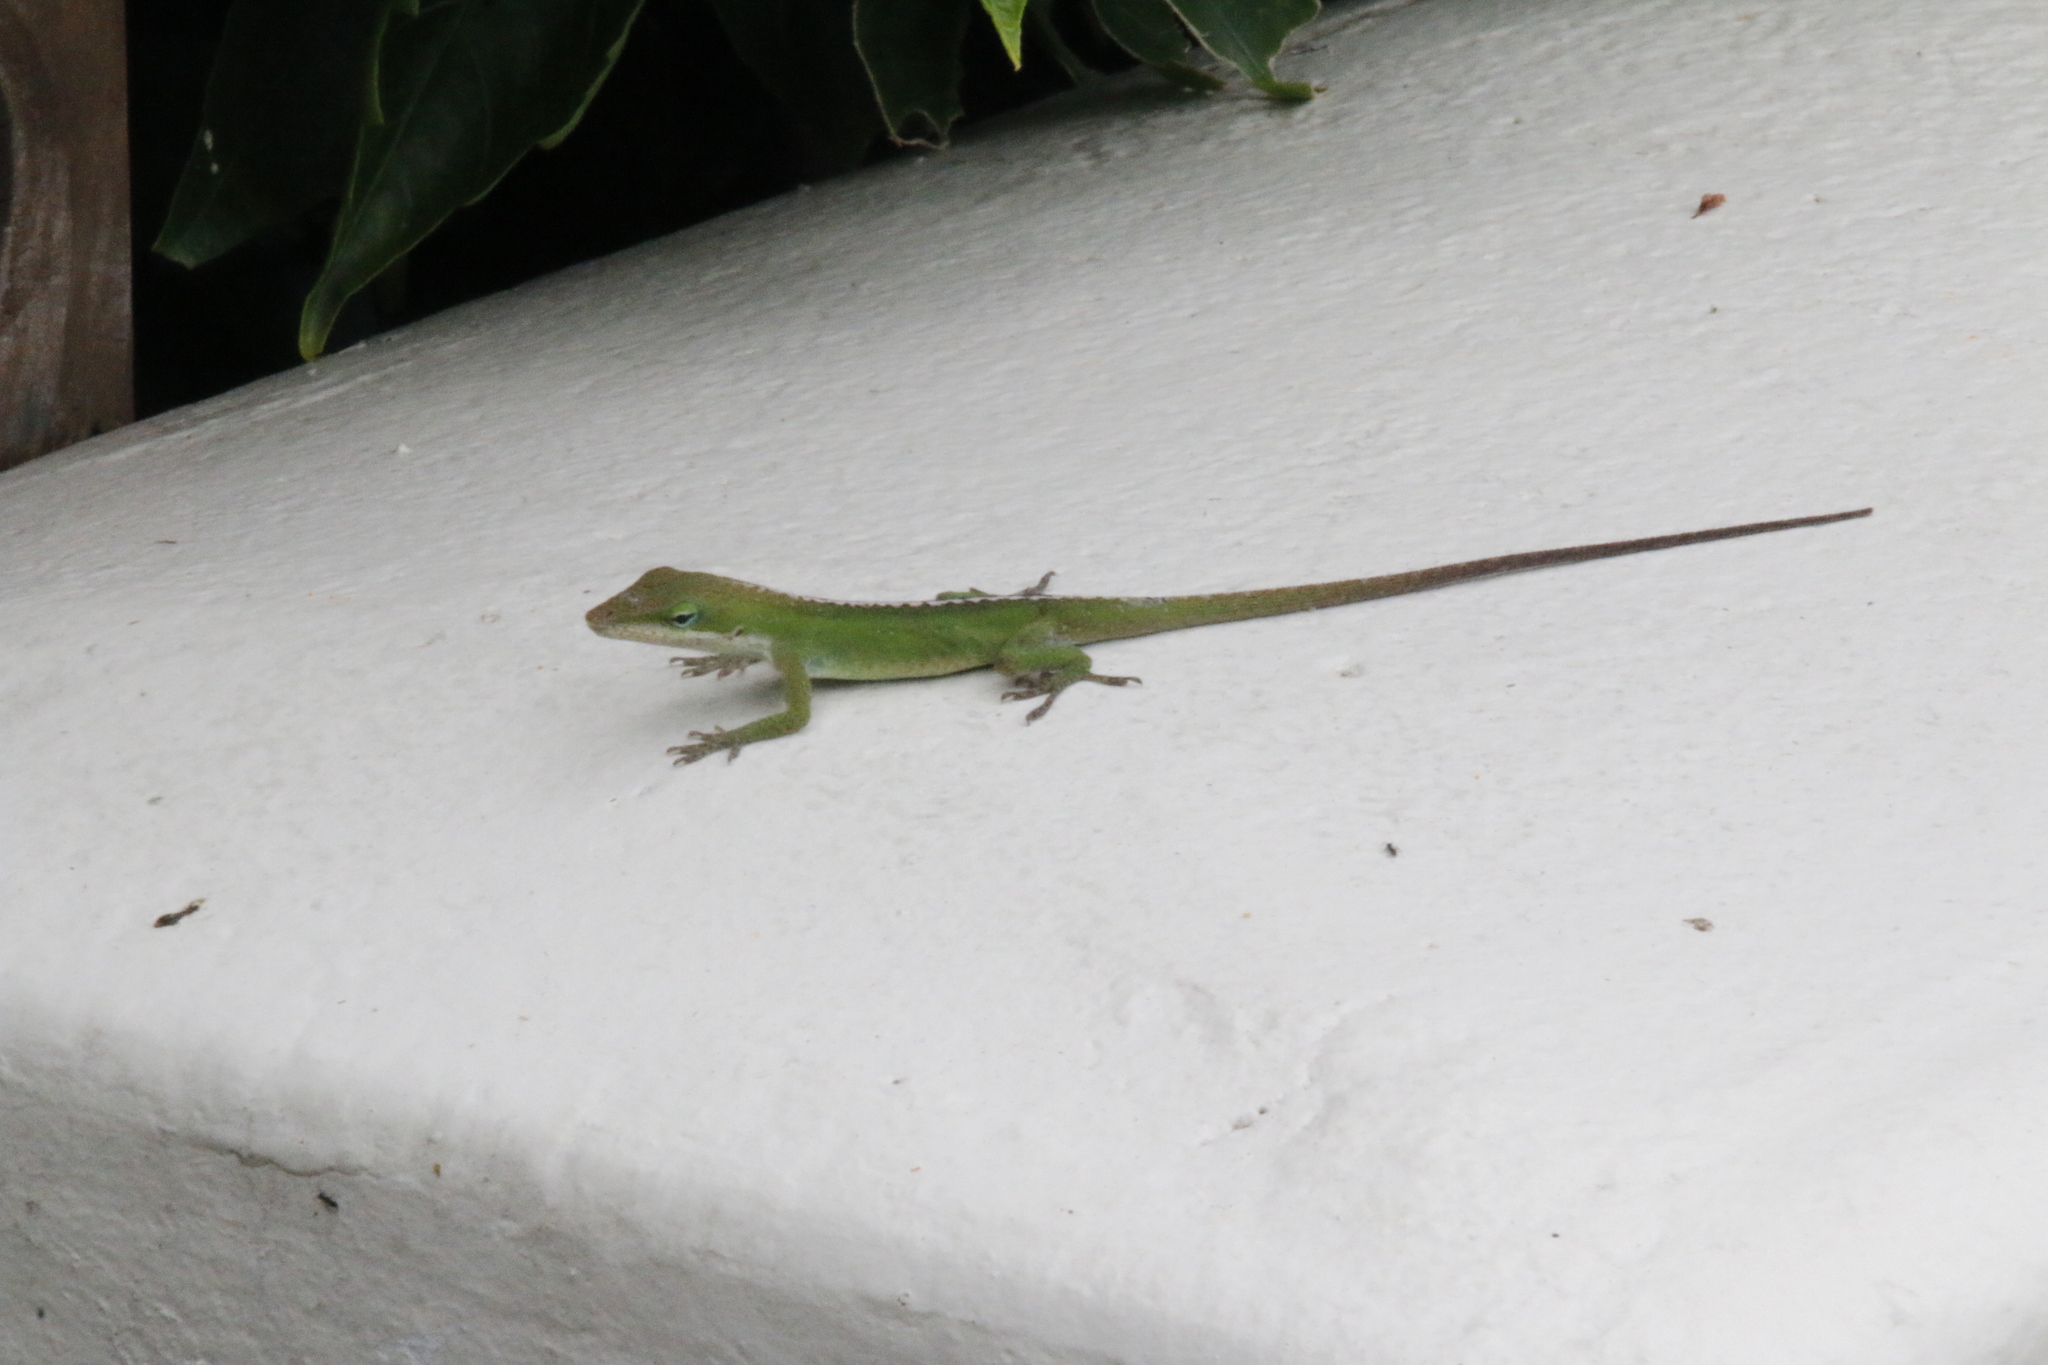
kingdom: Animalia
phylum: Chordata
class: Squamata
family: Dactyloidae
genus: Anolis
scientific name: Anolis carolinensis
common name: Green anole
